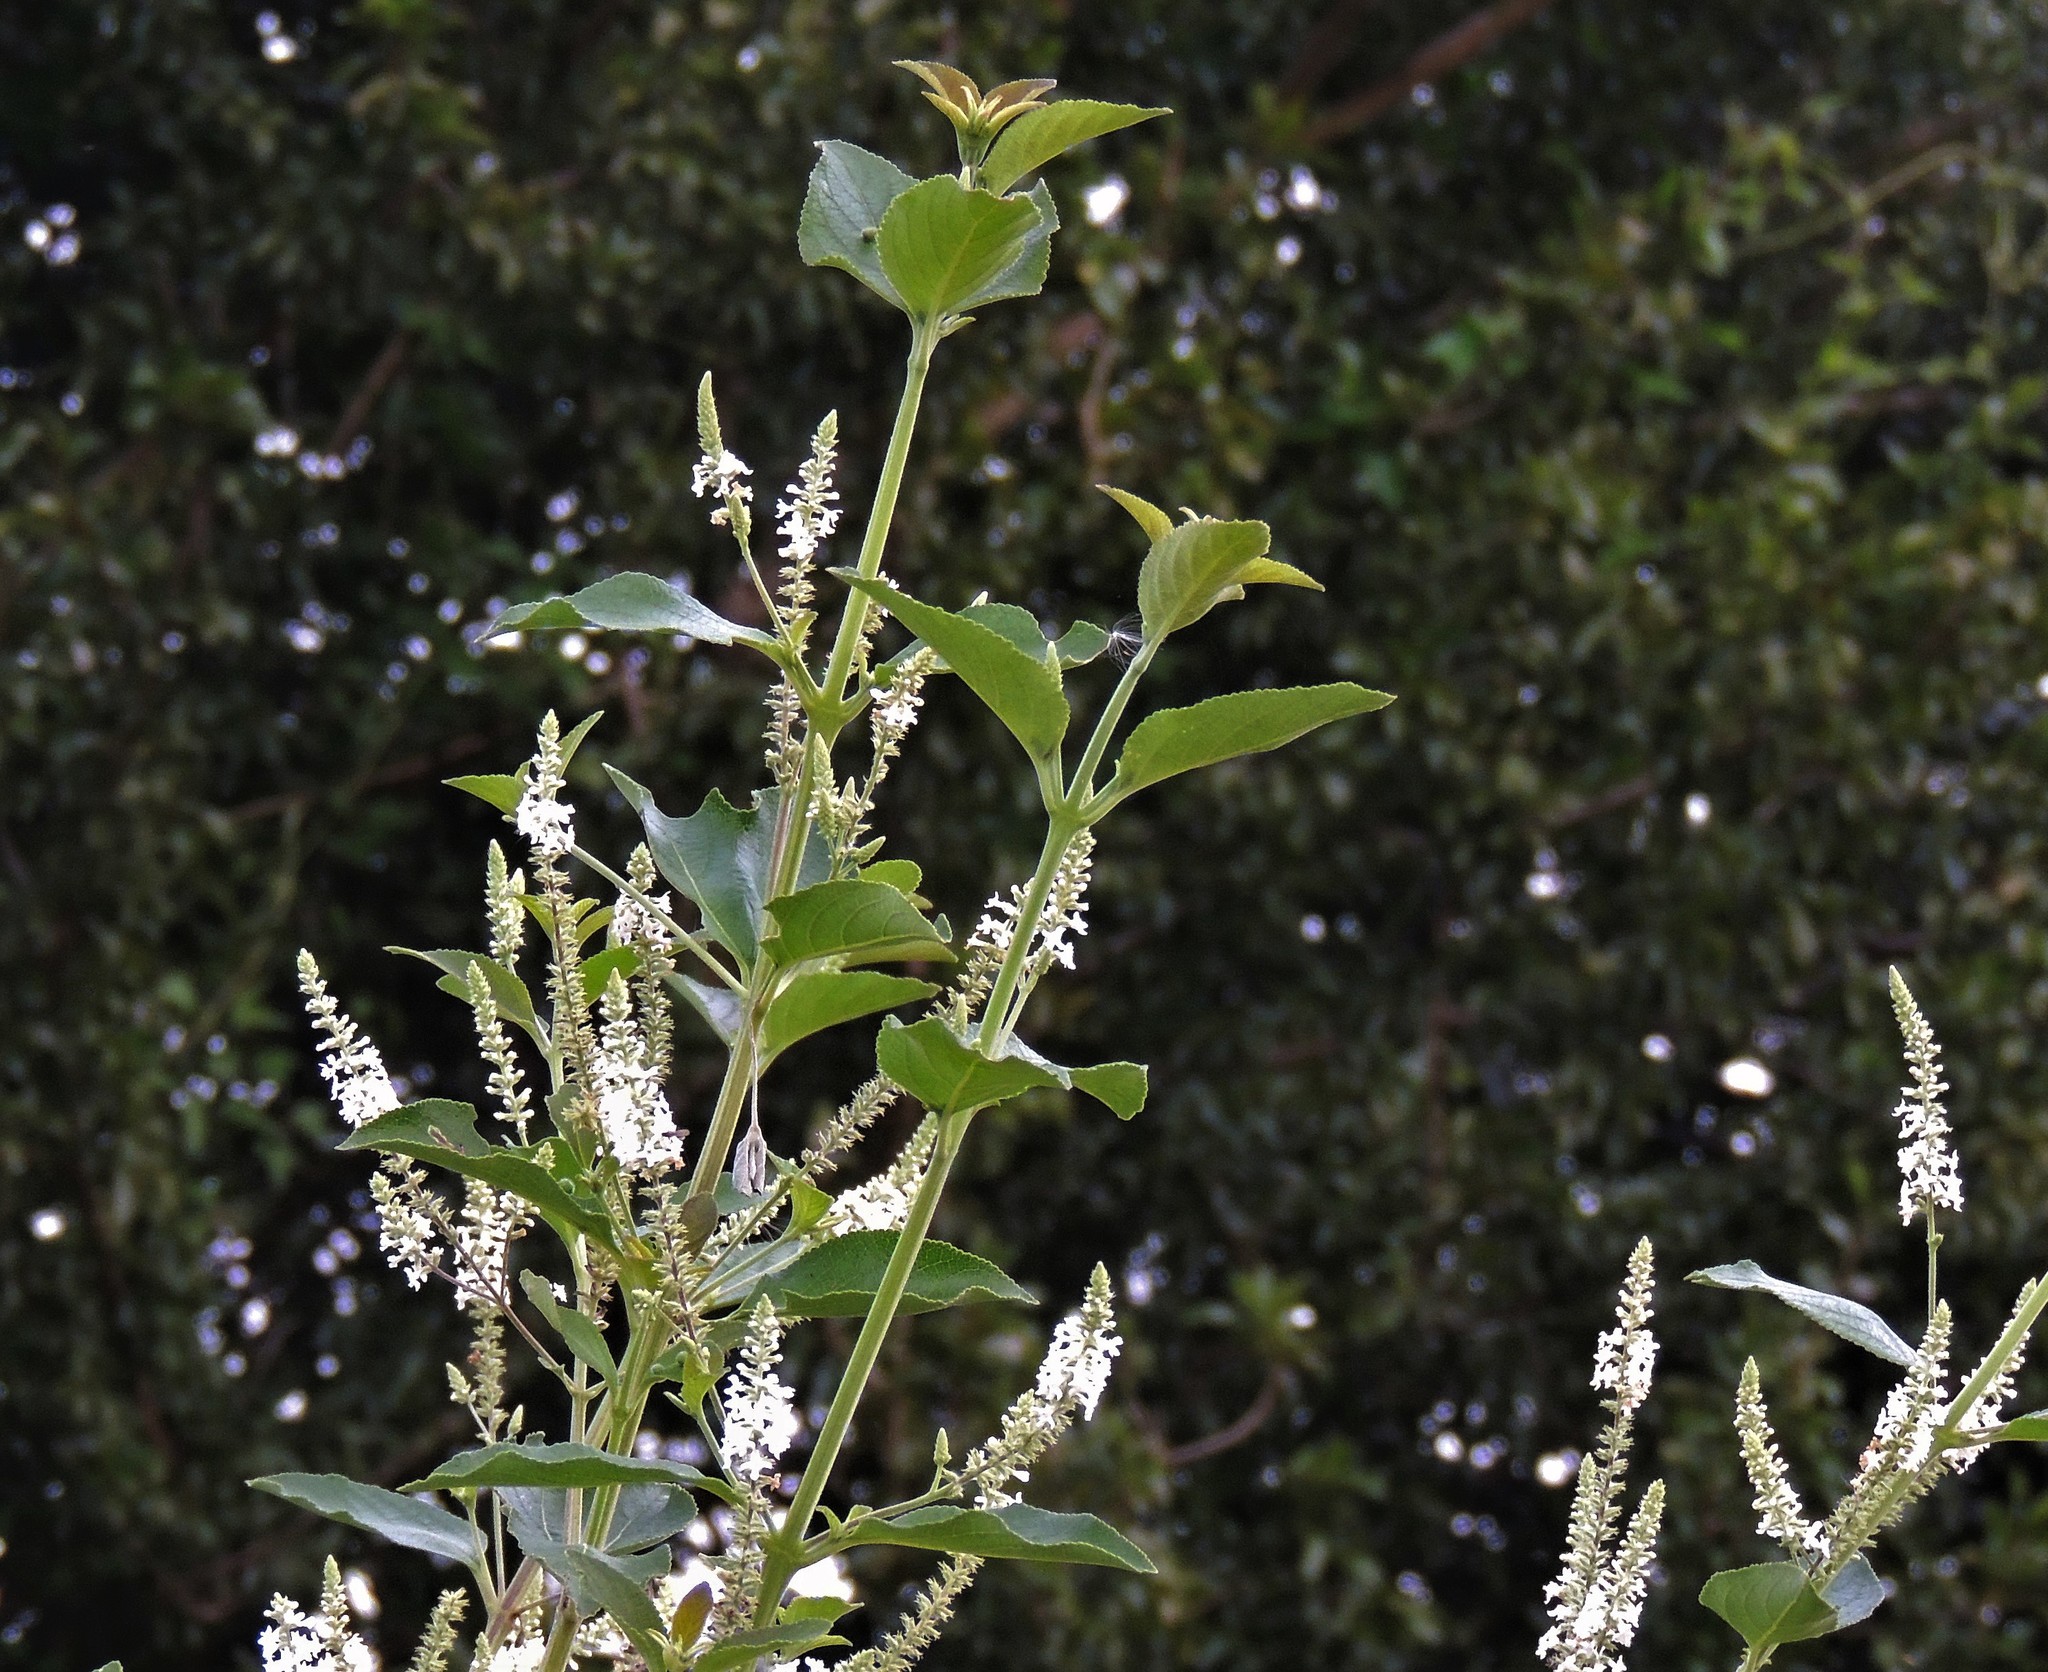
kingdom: Plantae
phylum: Tracheophyta
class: Magnoliopsida
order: Lamiales
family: Verbenaceae
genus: Aloysia
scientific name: Aloysia virgata
